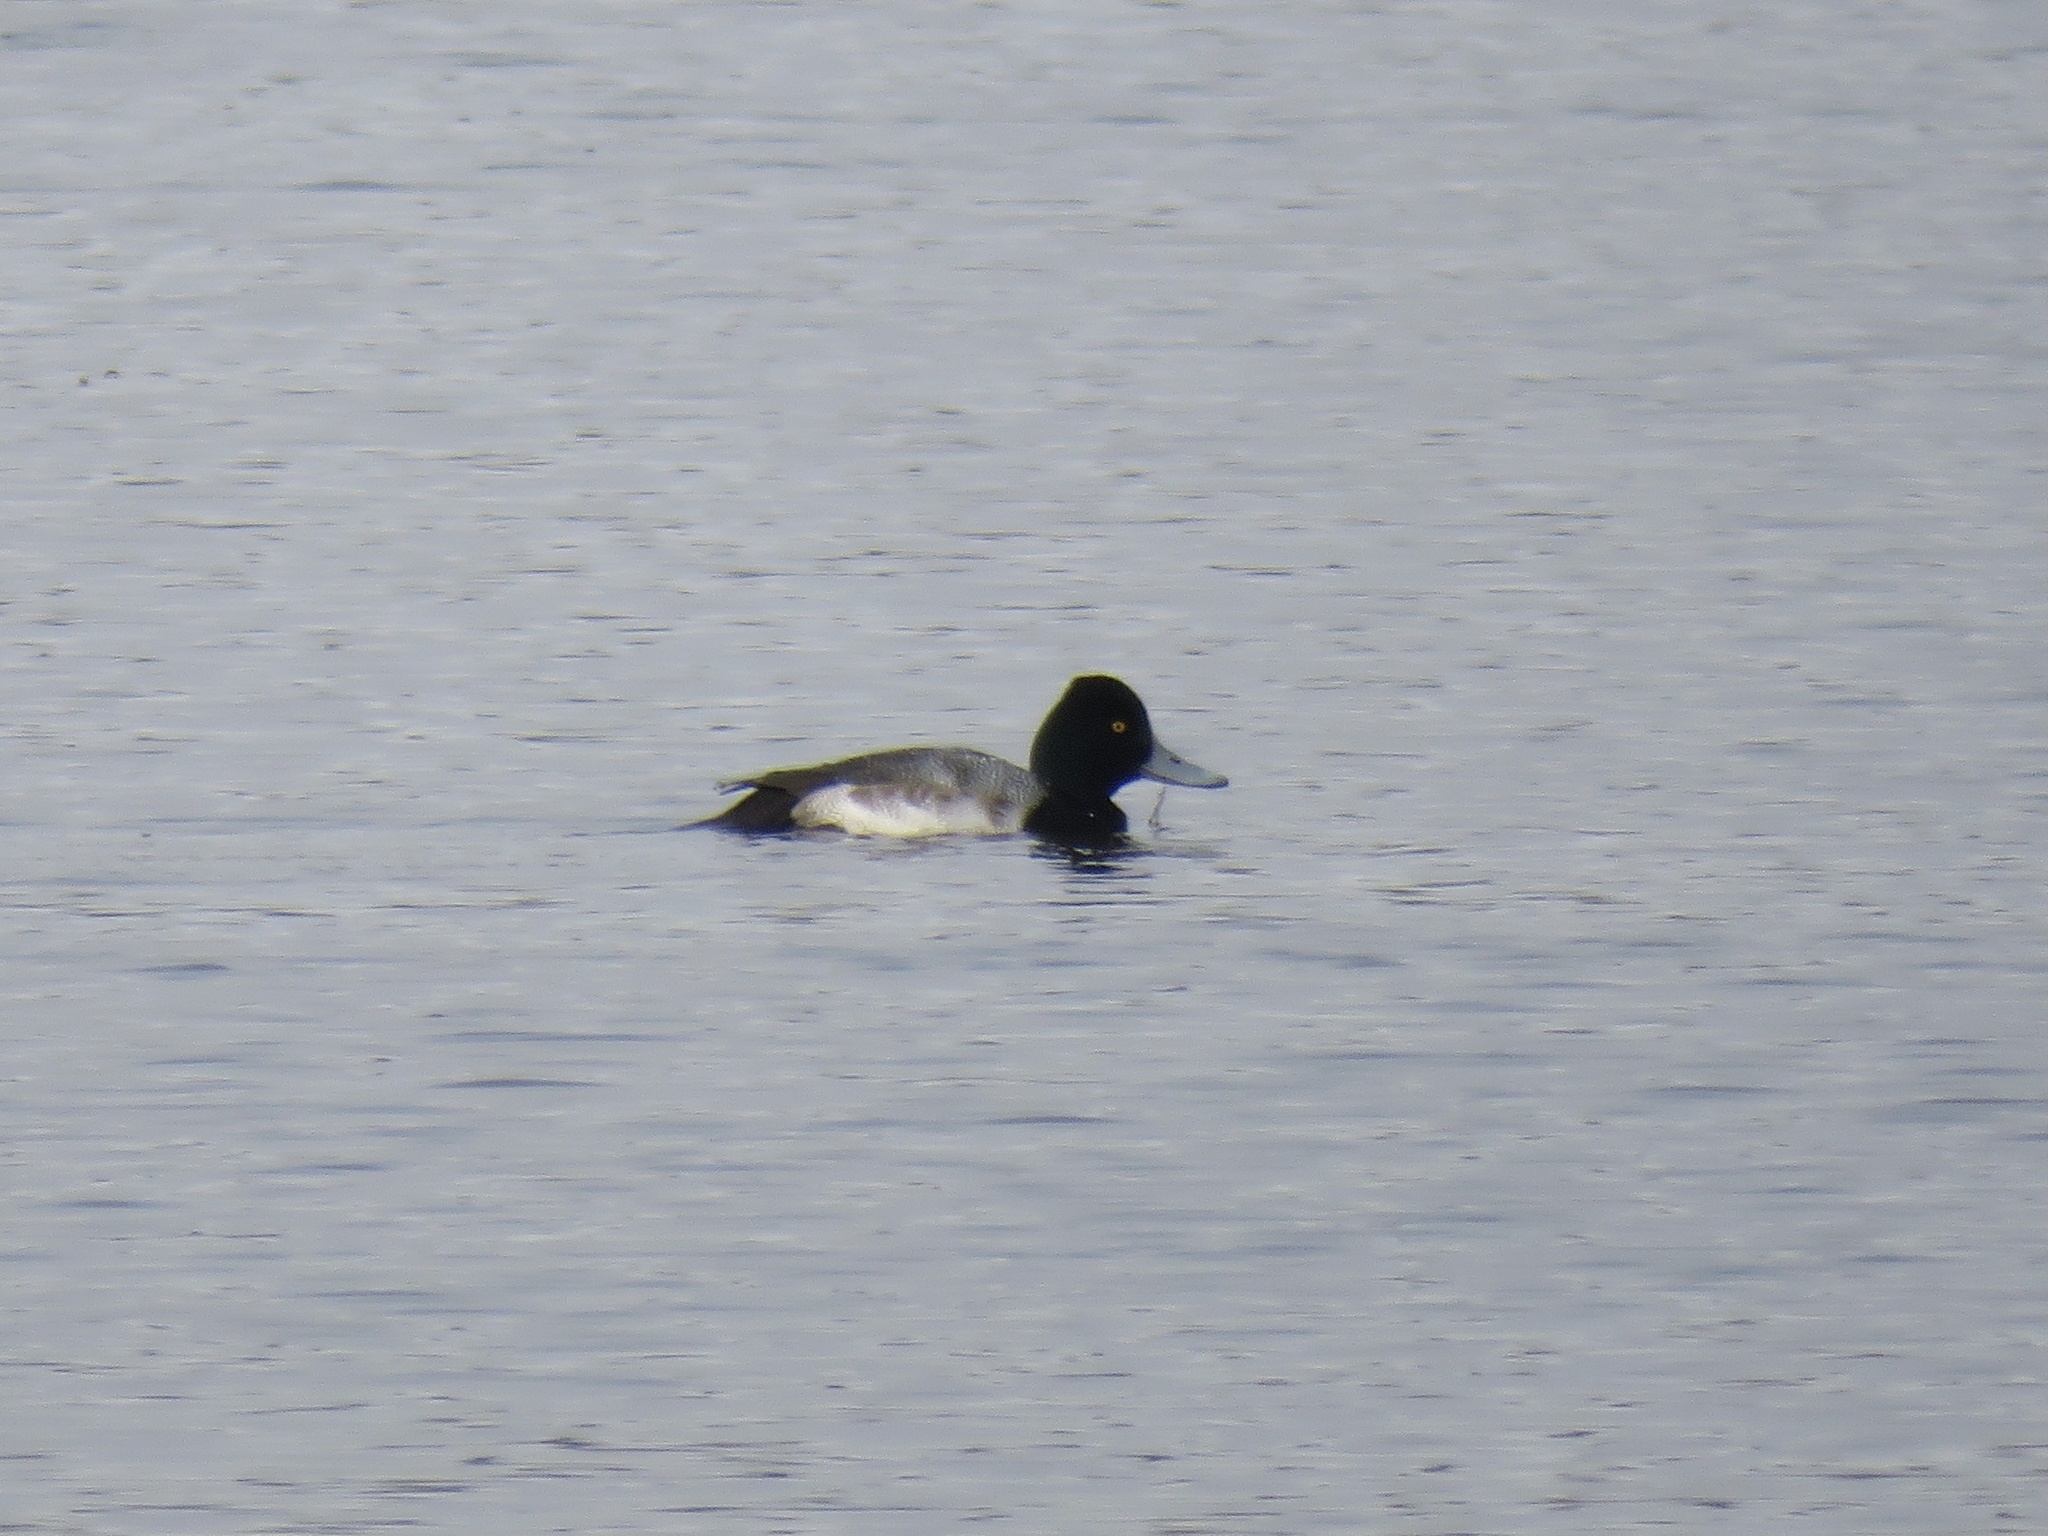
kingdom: Animalia
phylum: Chordata
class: Aves
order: Anseriformes
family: Anatidae
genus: Aythya
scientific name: Aythya affinis
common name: Lesser scaup
